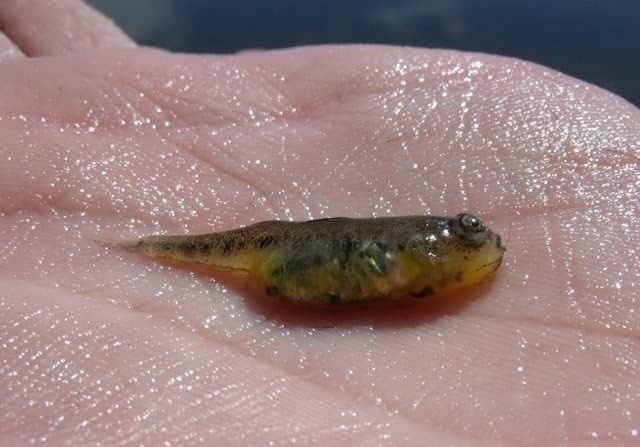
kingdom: Animalia
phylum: Chordata
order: Perciformes
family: Gobiidae
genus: Knipowitschia
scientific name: Knipowitschia panizzae
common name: Adriatic dwarf goby
